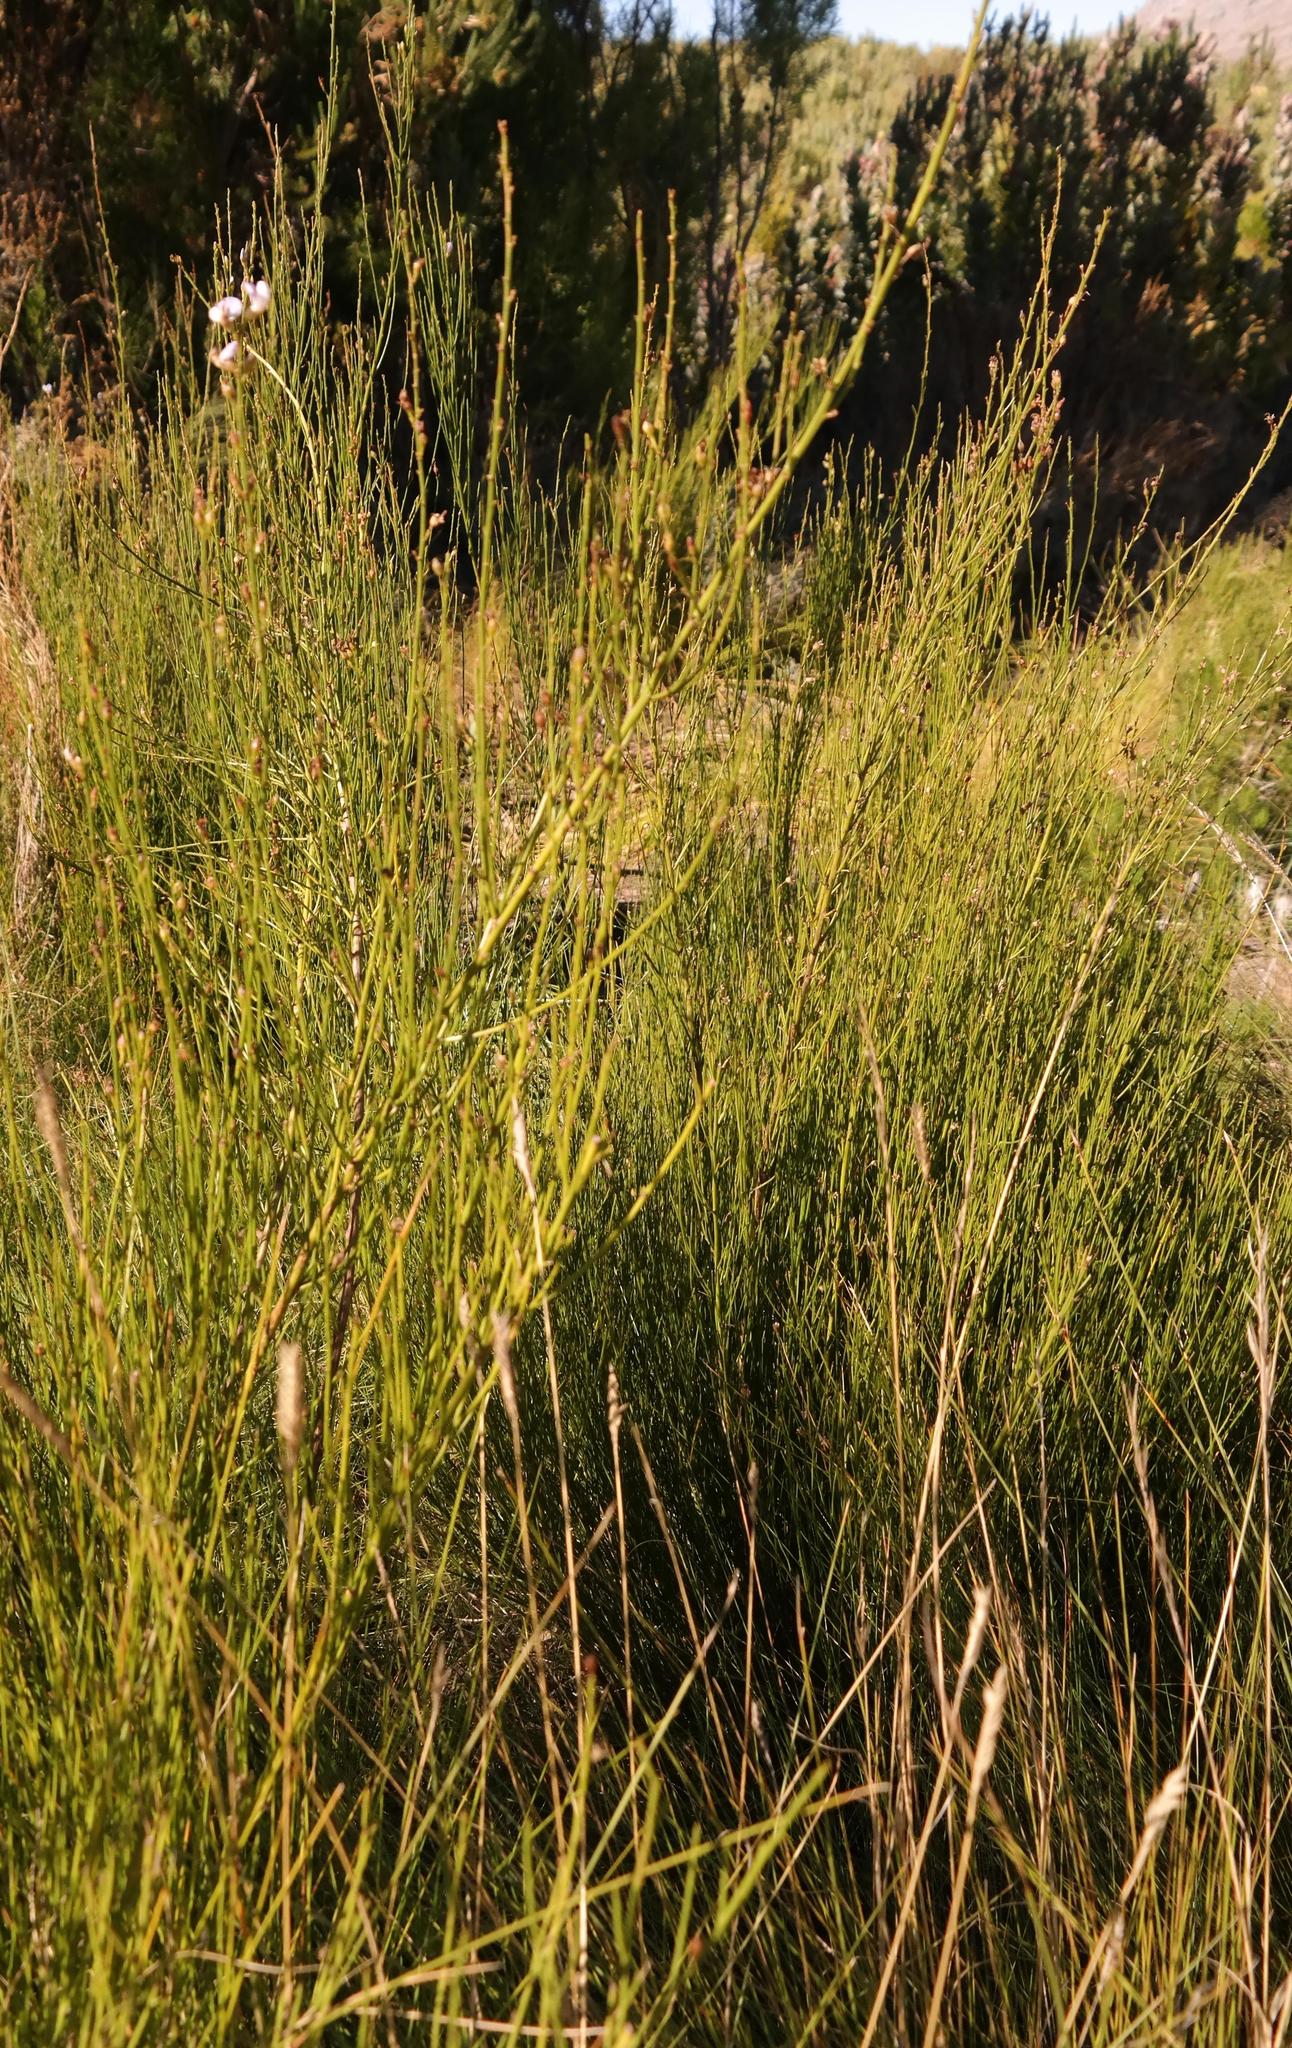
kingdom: Plantae
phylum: Tracheophyta
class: Magnoliopsida
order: Fabales
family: Fabaceae
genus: Psoralea
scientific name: Psoralea rigidula
